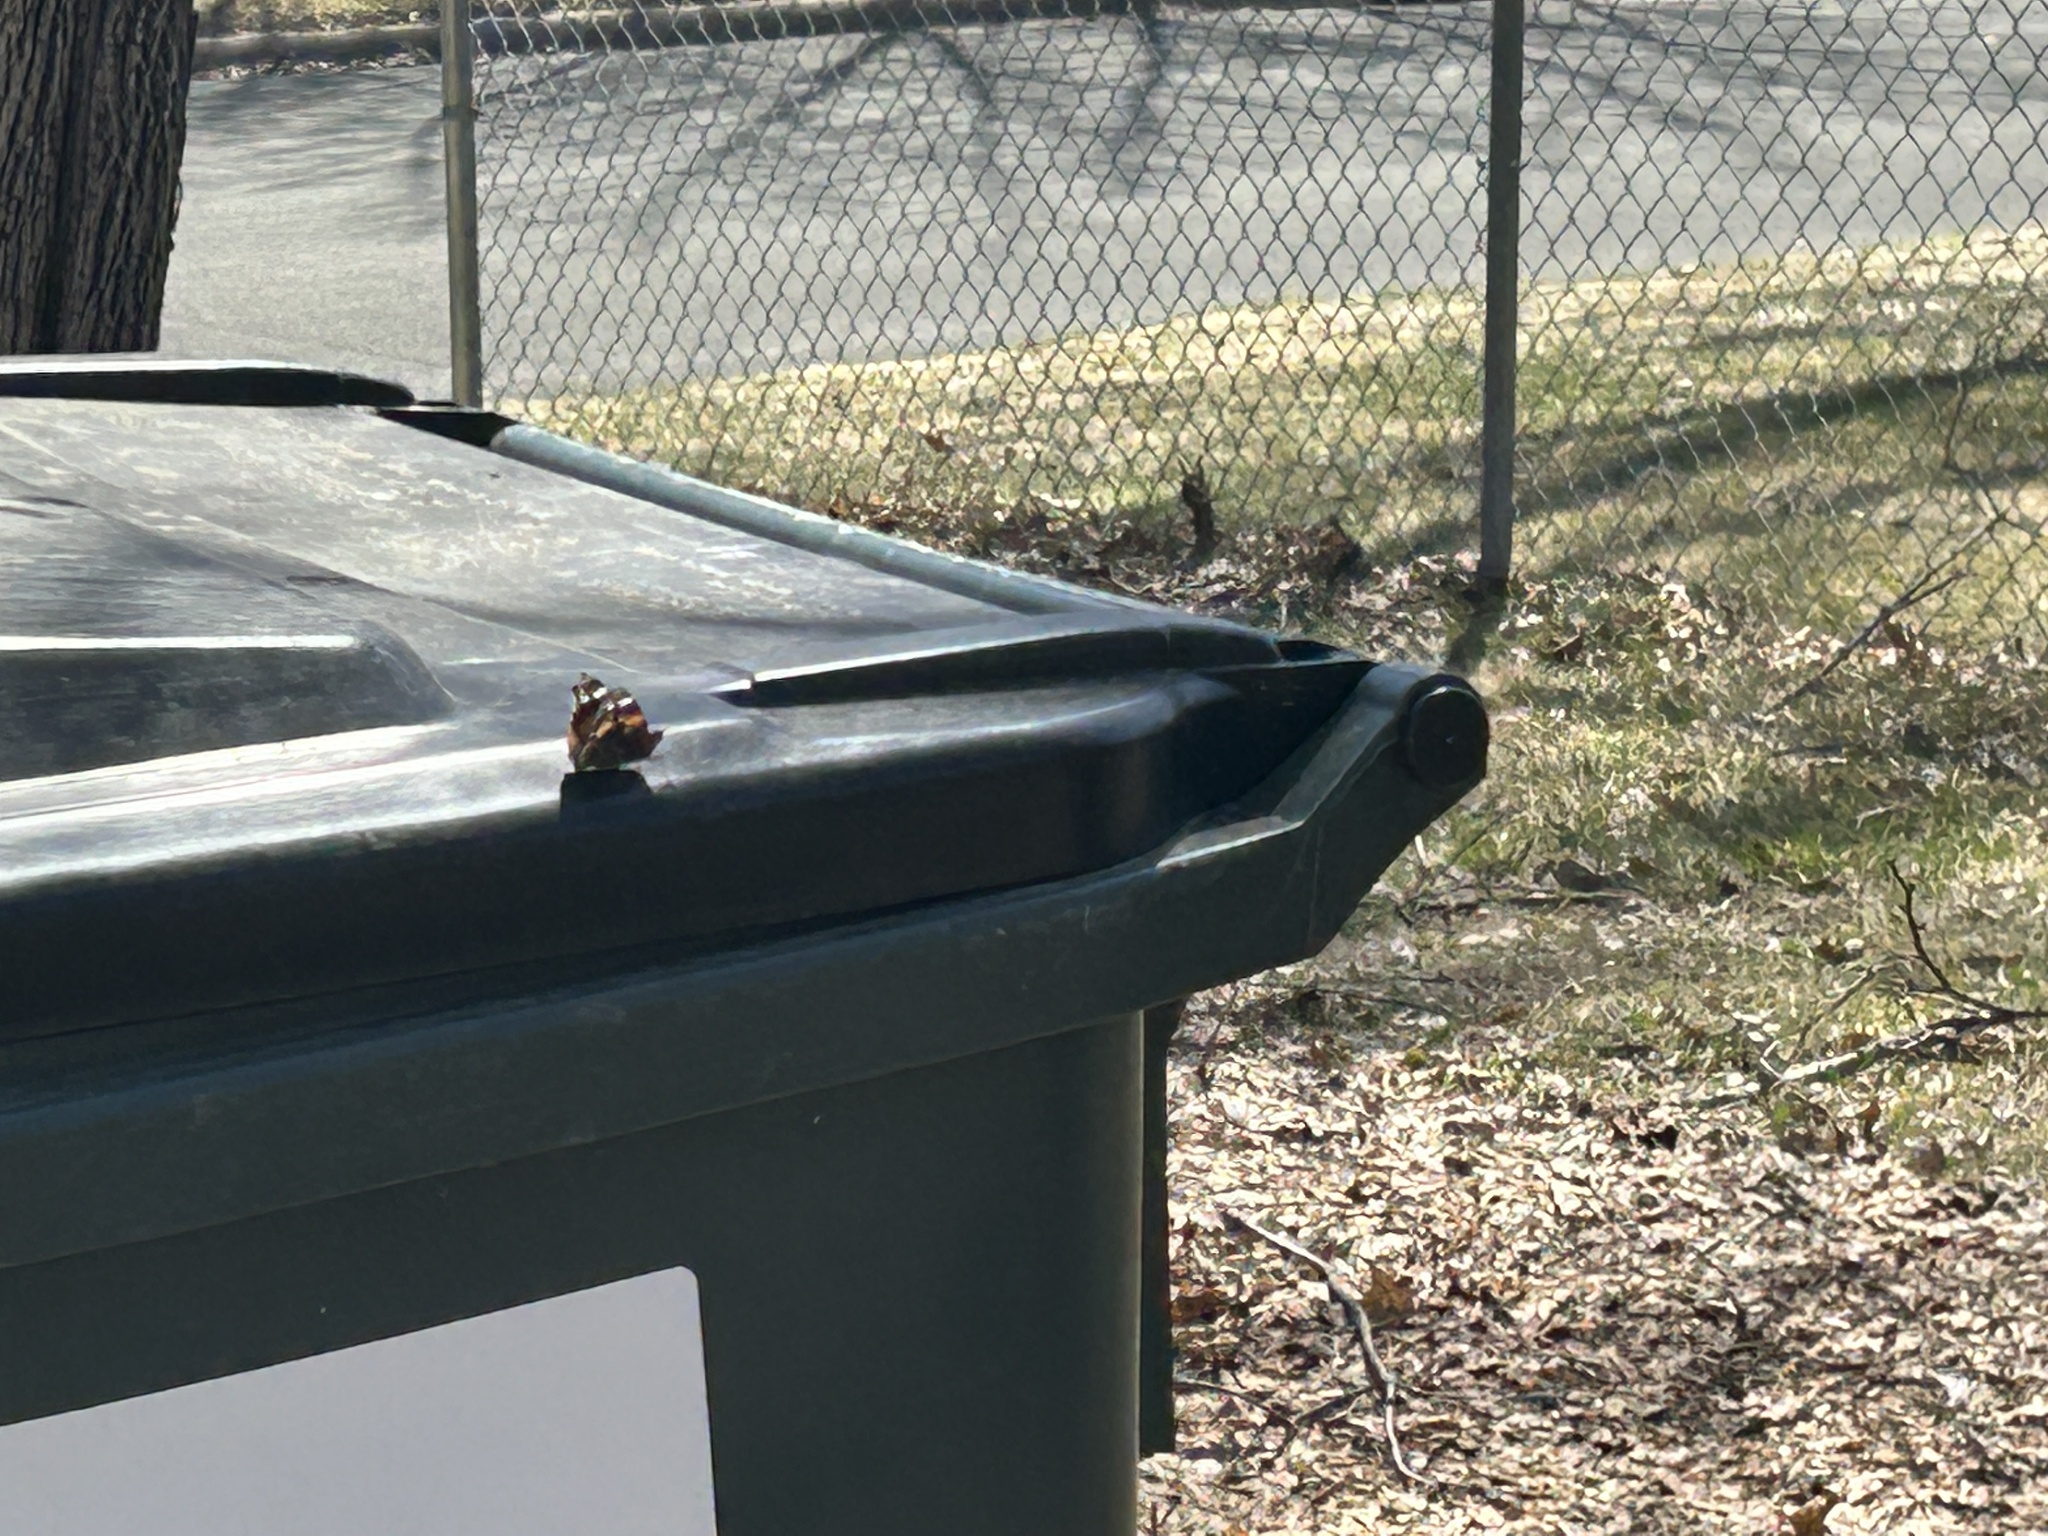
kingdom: Animalia
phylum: Arthropoda
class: Insecta
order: Lepidoptera
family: Nymphalidae
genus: Vanessa
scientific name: Vanessa atalanta
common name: Red admiral
